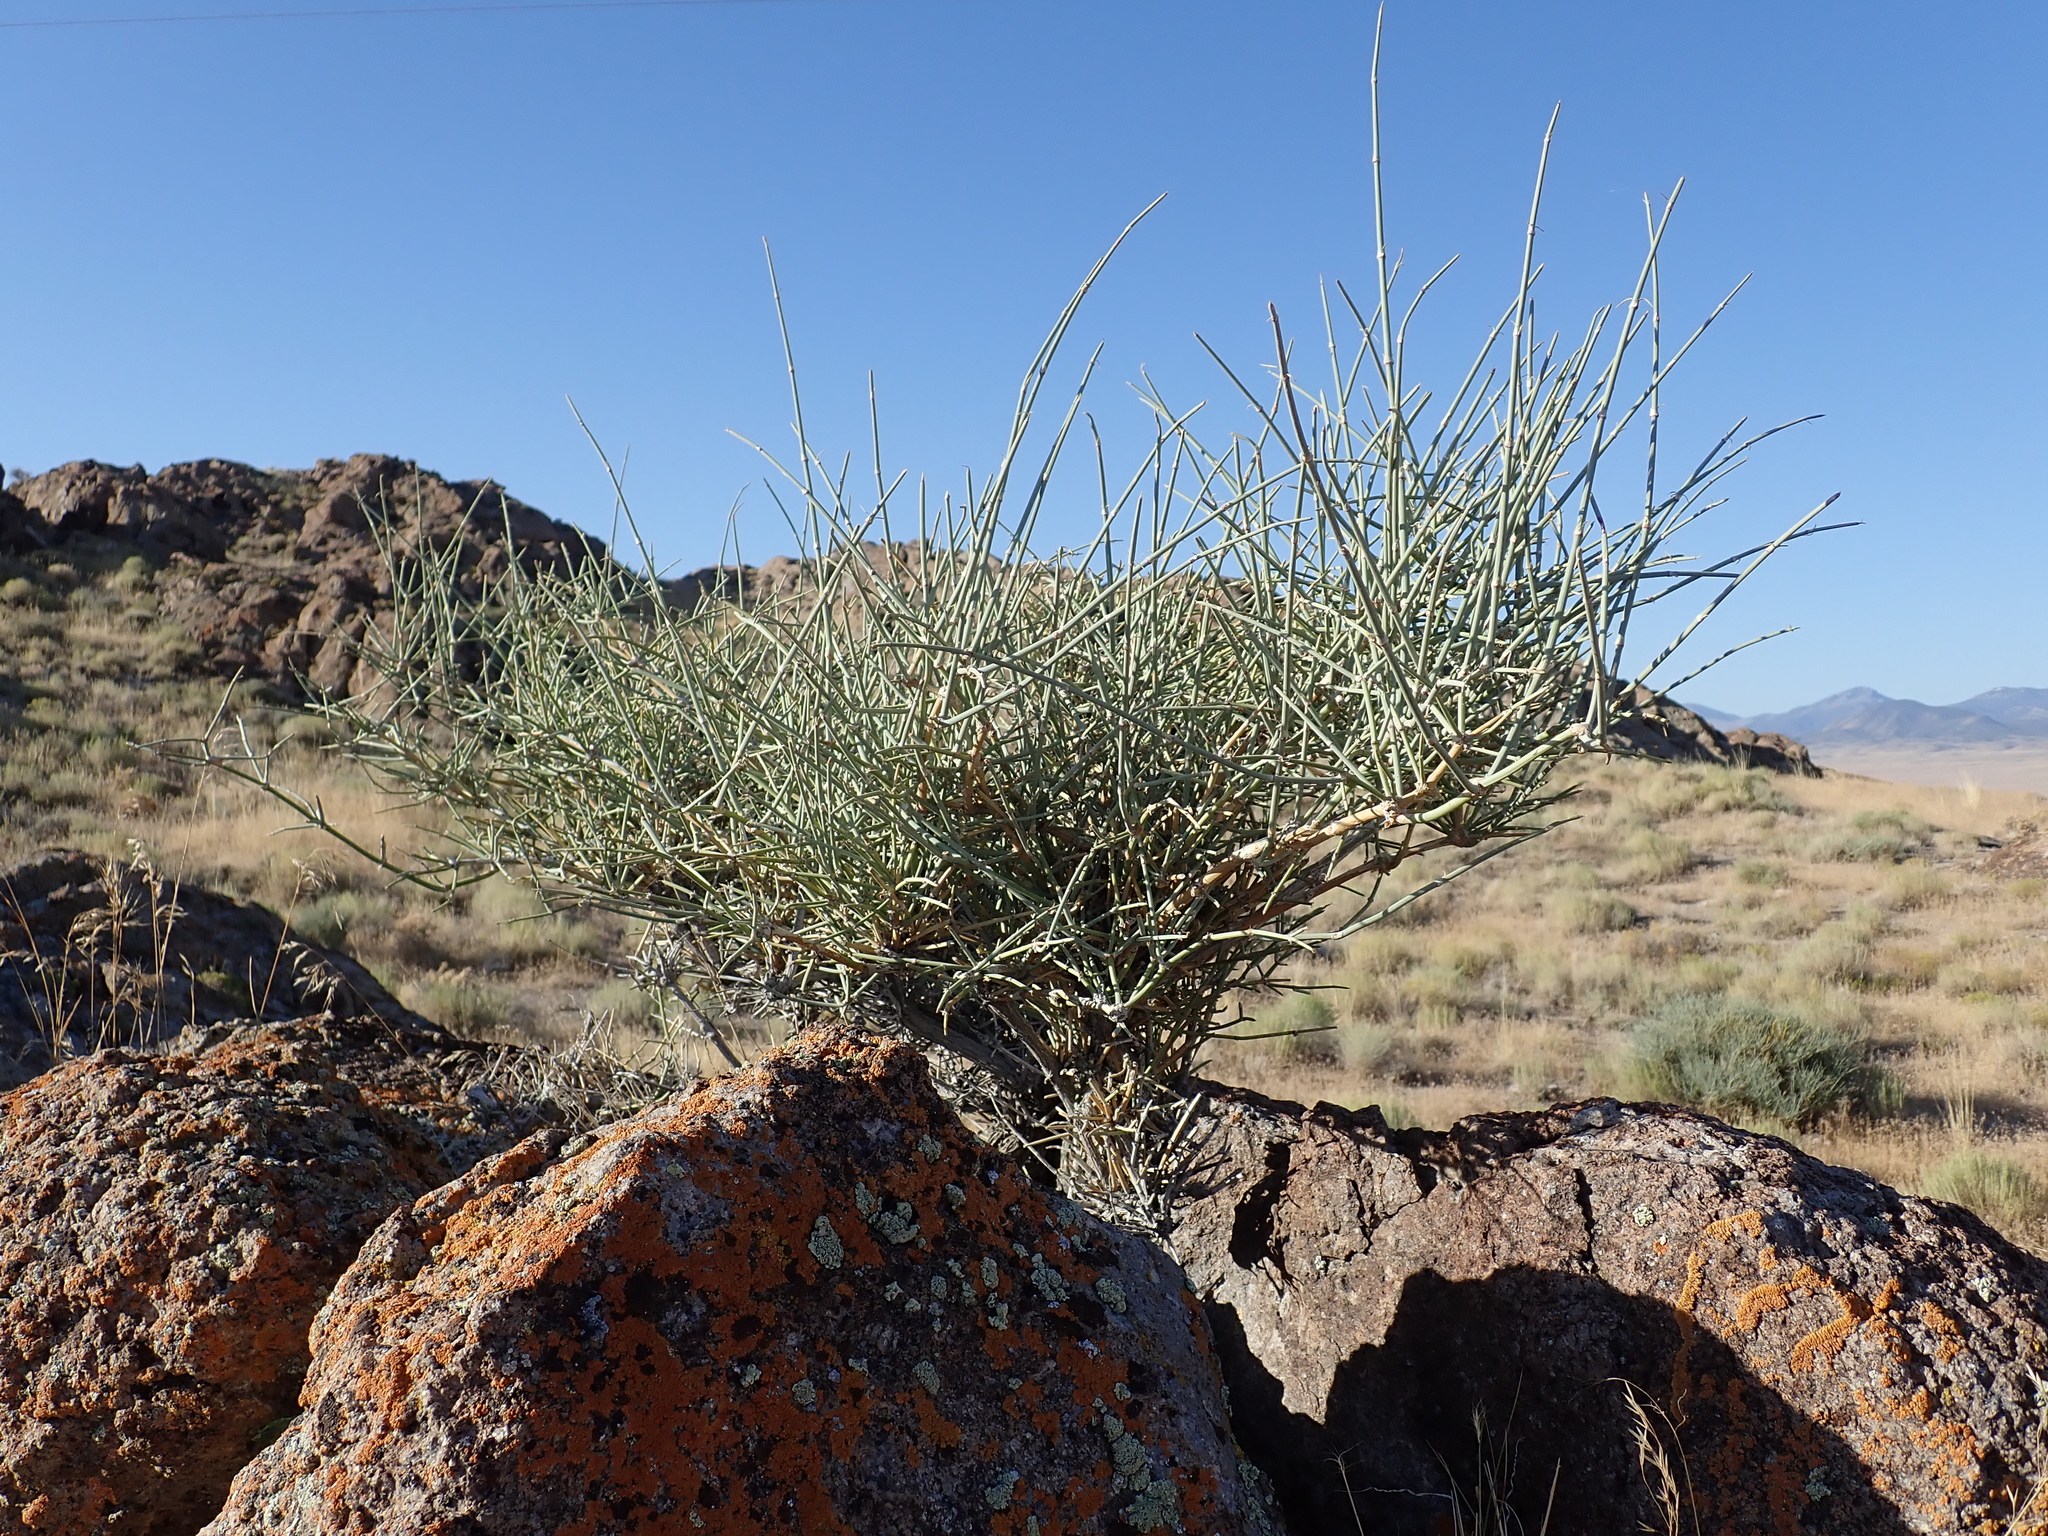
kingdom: Plantae
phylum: Tracheophyta
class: Gnetopsida
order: Ephedrales
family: Ephedraceae
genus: Ephedra
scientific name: Ephedra nevadensis
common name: Gray ephedra
